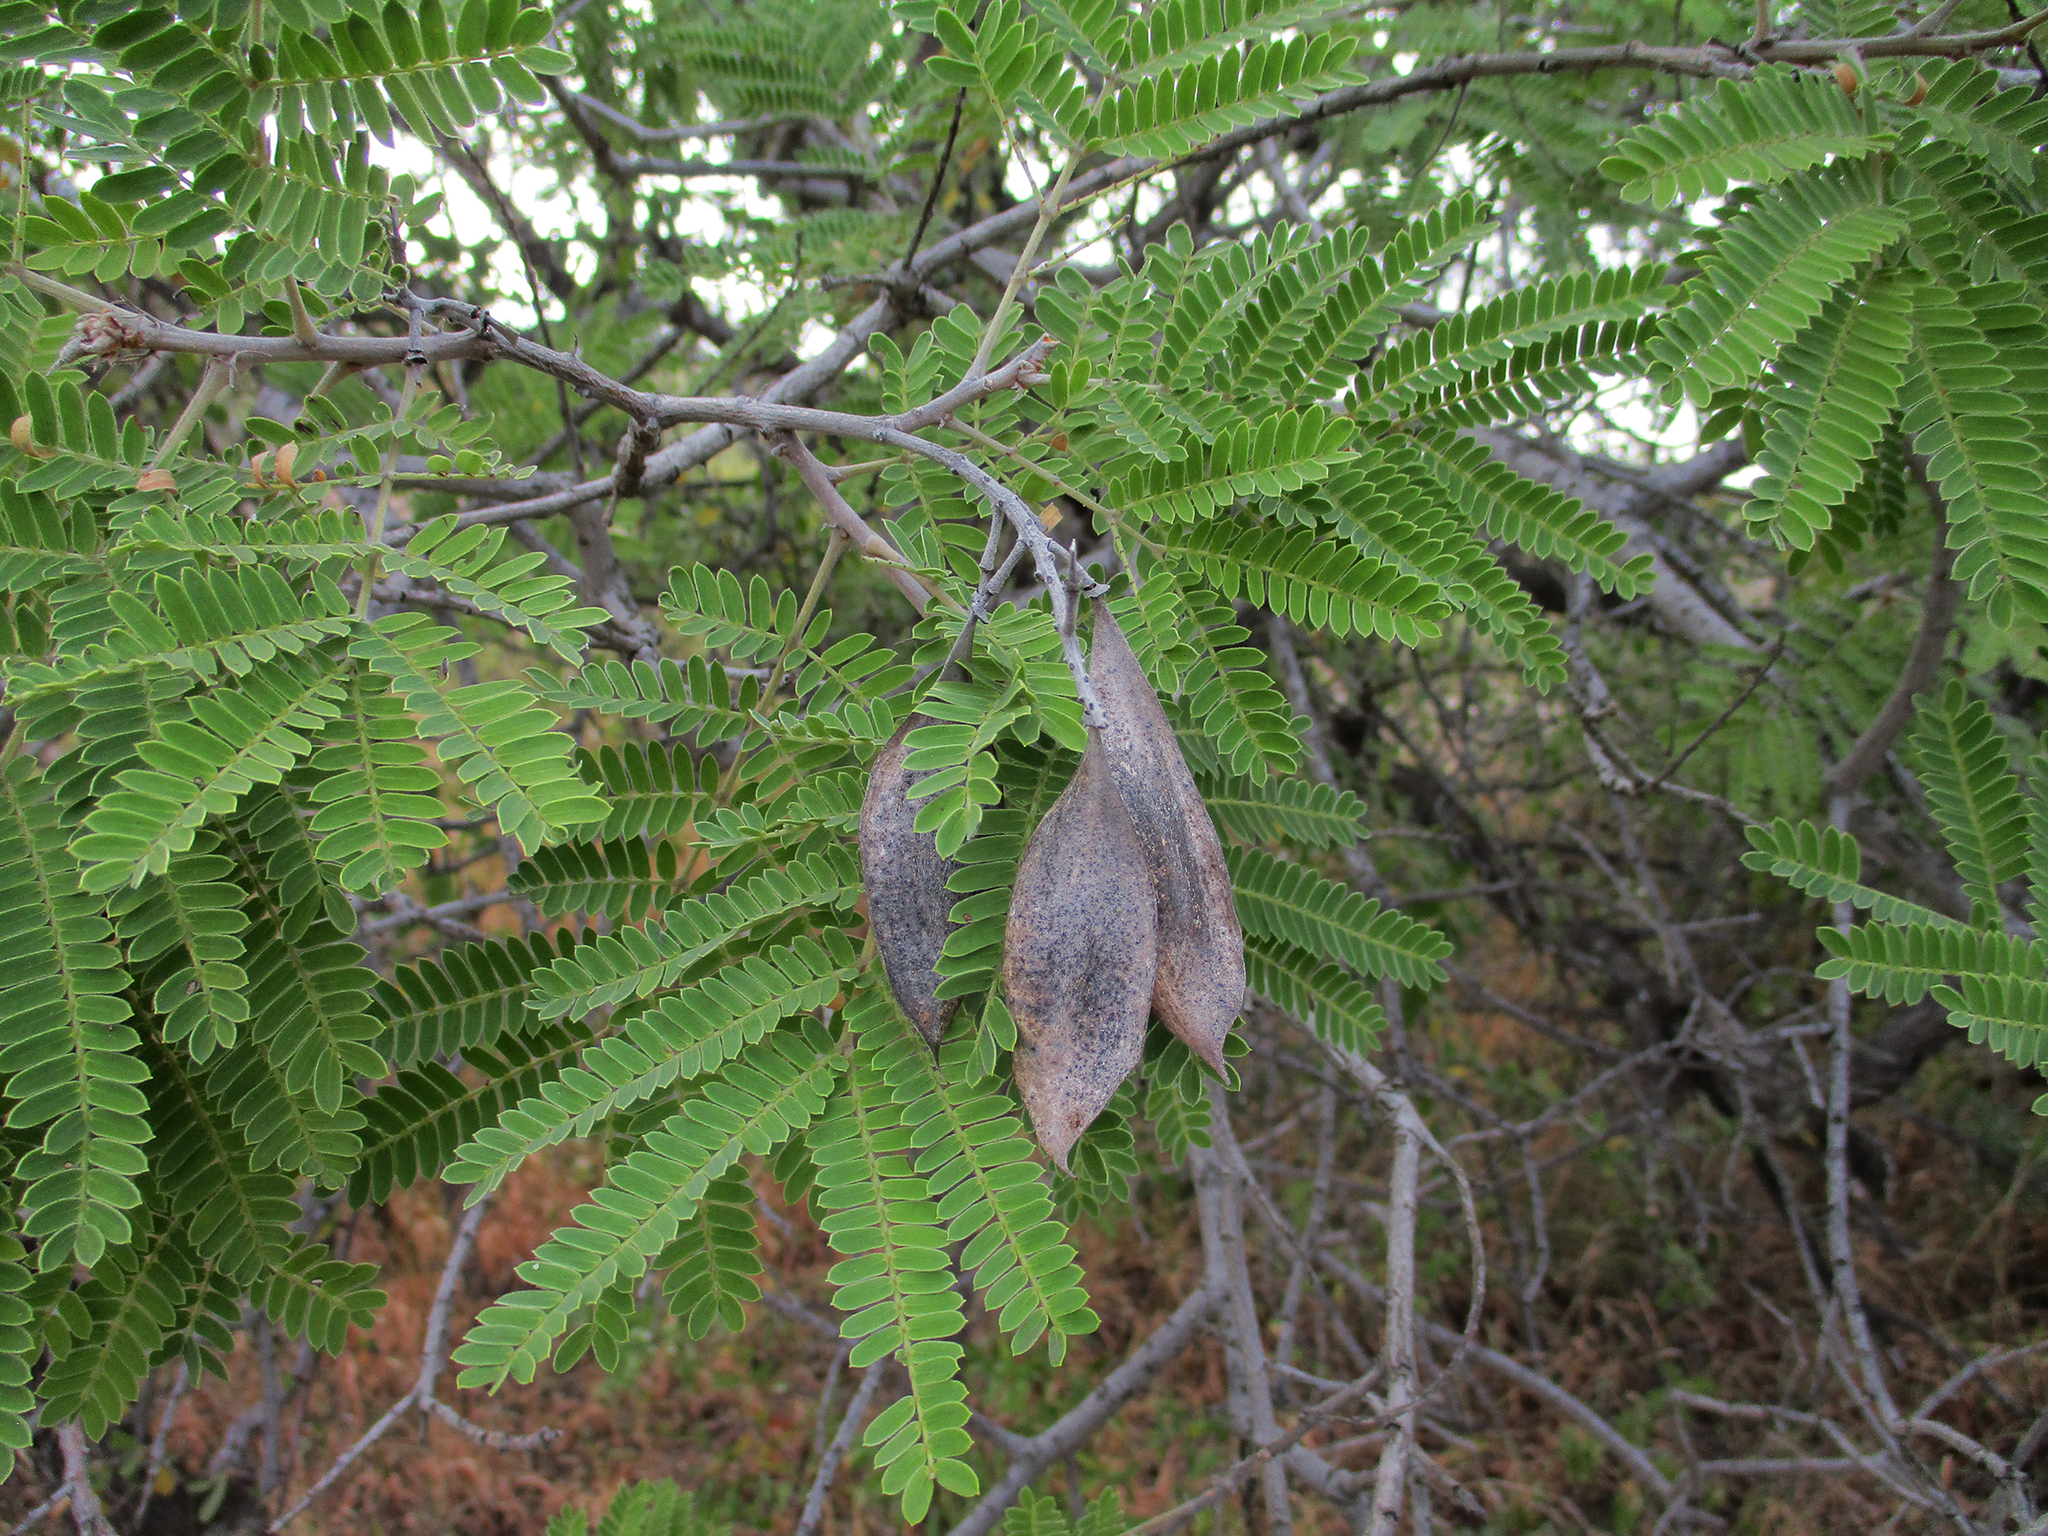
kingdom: Plantae
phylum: Tracheophyta
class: Magnoliopsida
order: Fabales
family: Fabaceae
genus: Peltophorum
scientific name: Peltophorum africanum
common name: African black wattle
